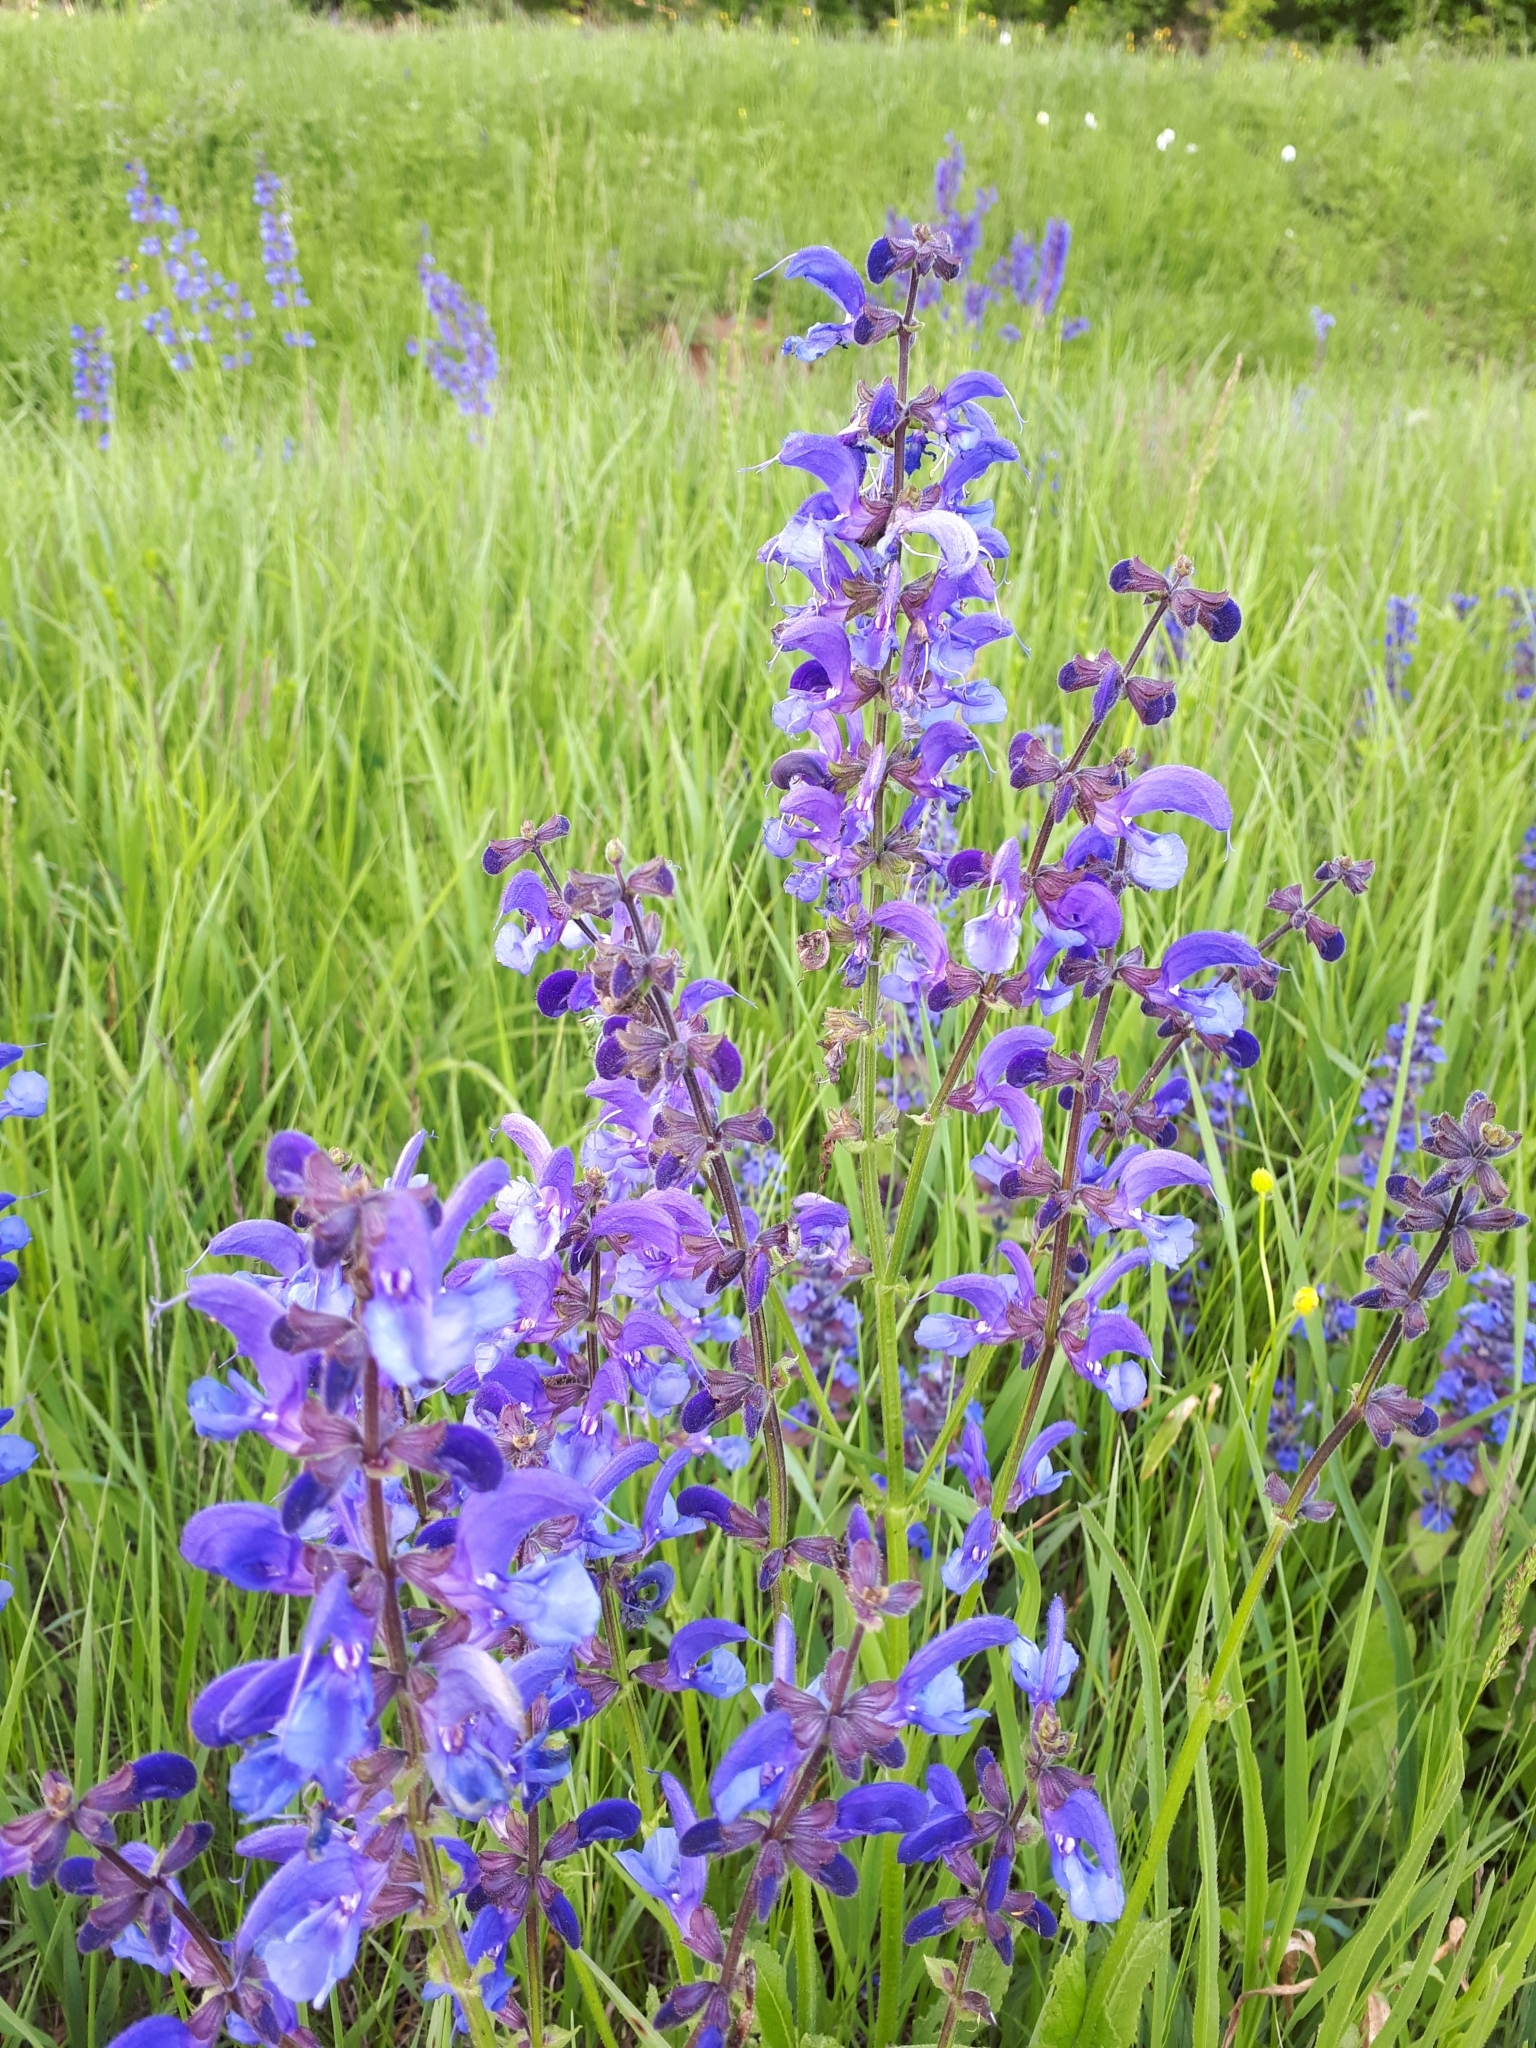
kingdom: Plantae
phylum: Tracheophyta
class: Magnoliopsida
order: Lamiales
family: Lamiaceae
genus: Salvia
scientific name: Salvia pratensis
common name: Meadow sage
